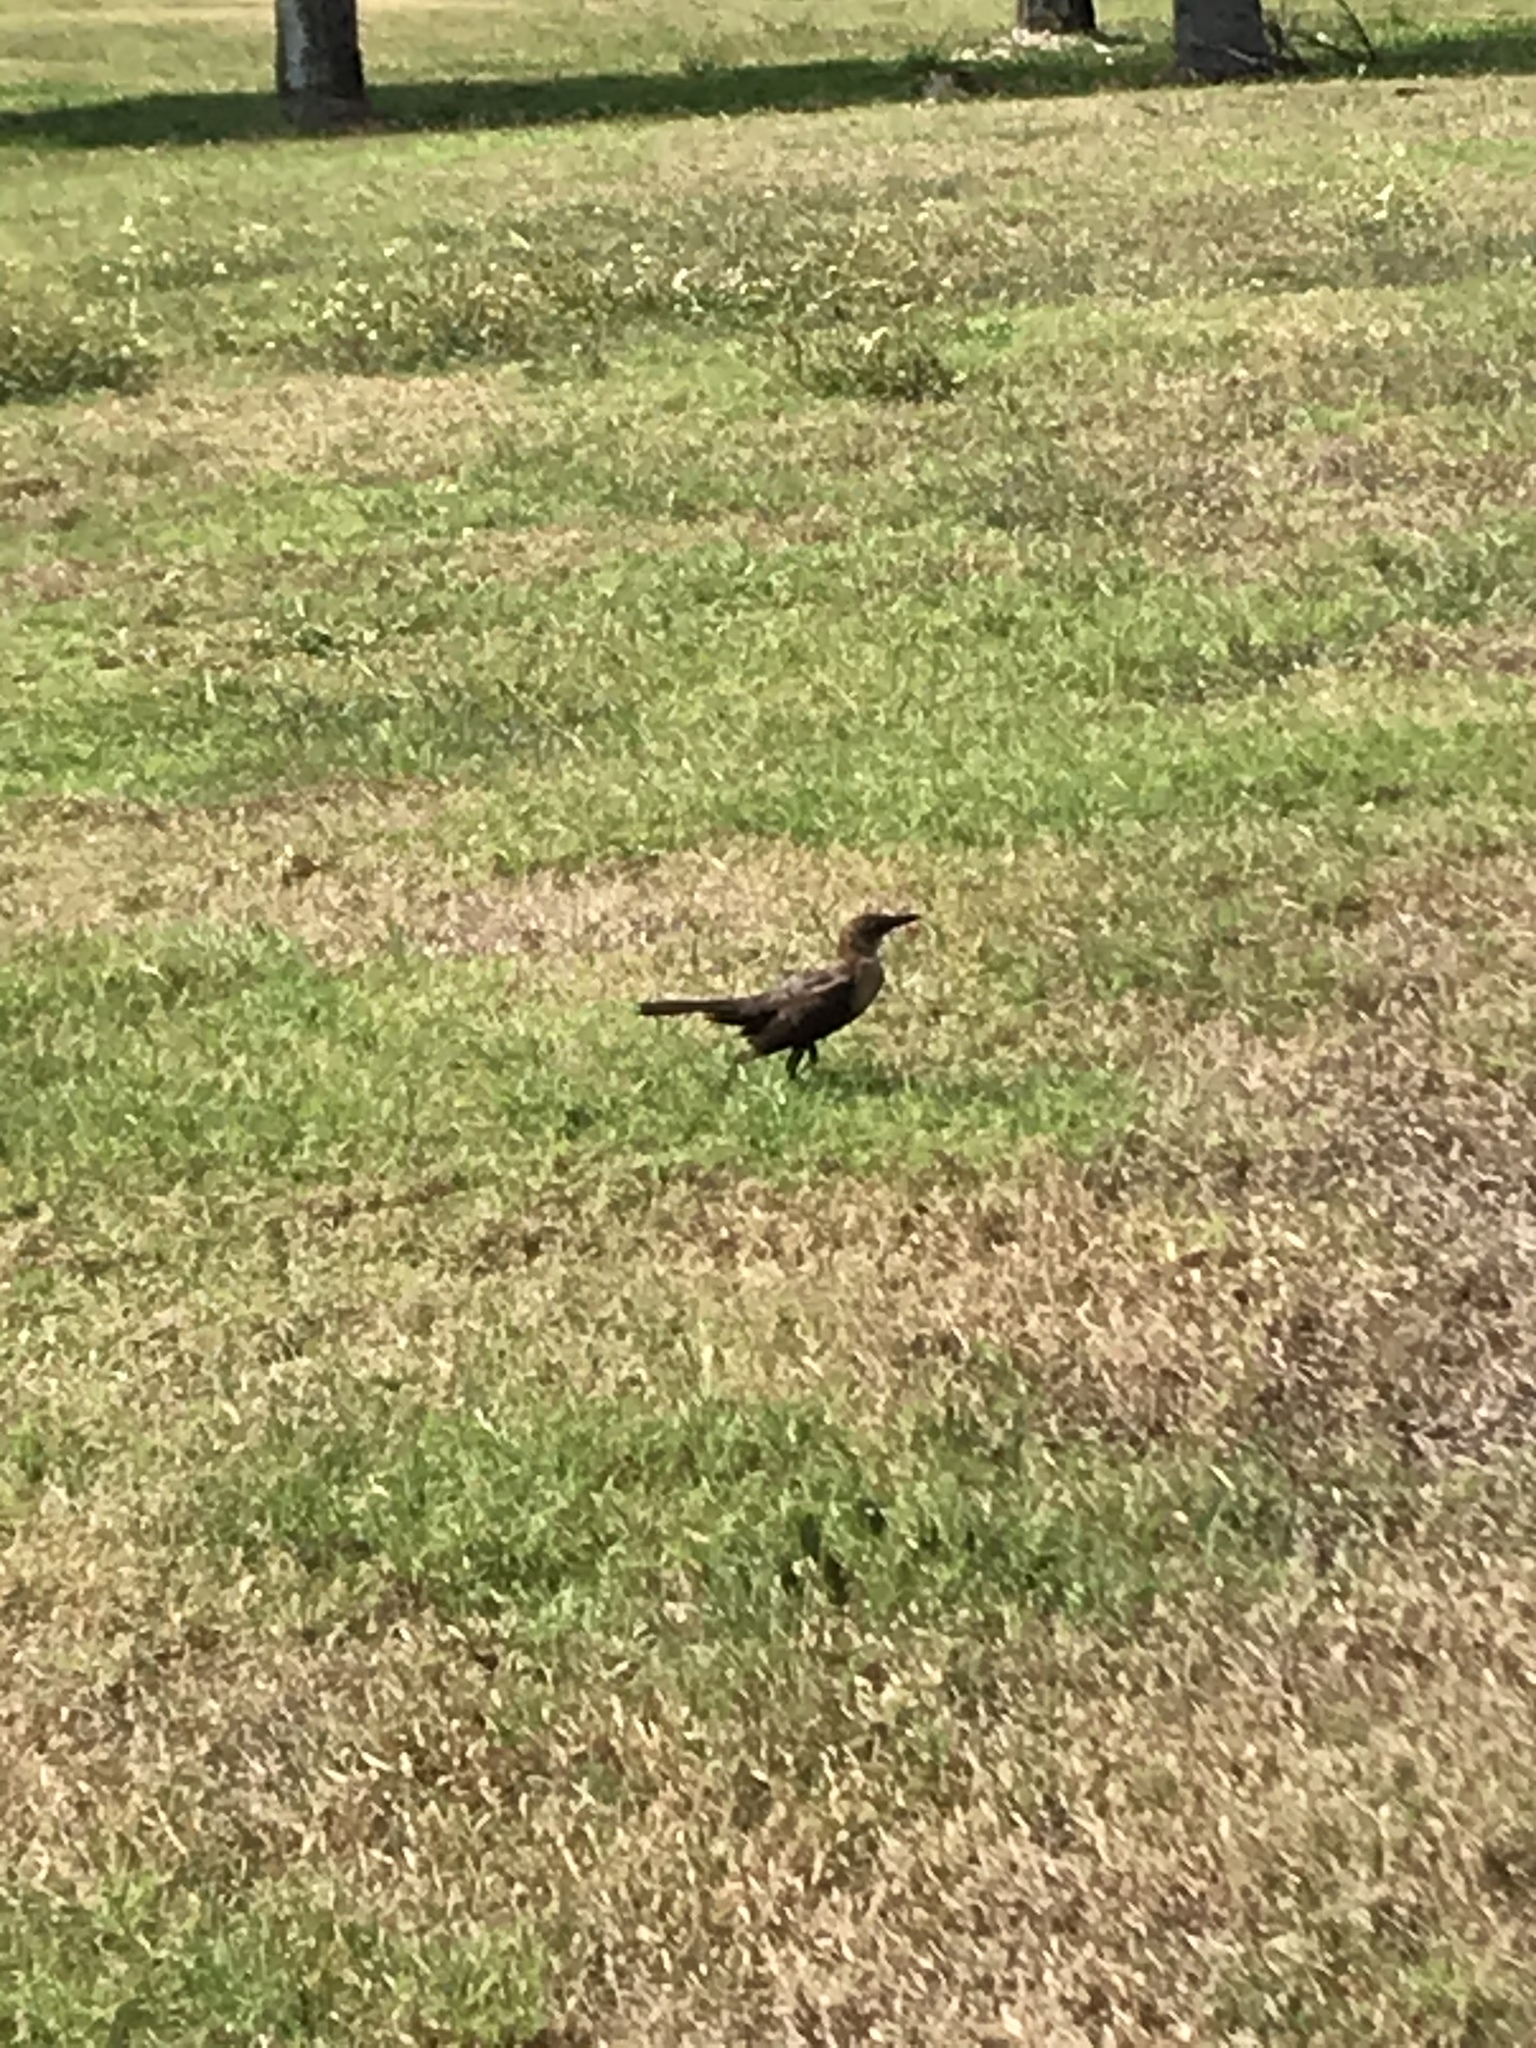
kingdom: Animalia
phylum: Chordata
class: Aves
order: Passeriformes
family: Icteridae
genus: Quiscalus
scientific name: Quiscalus major
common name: Boat-tailed grackle
